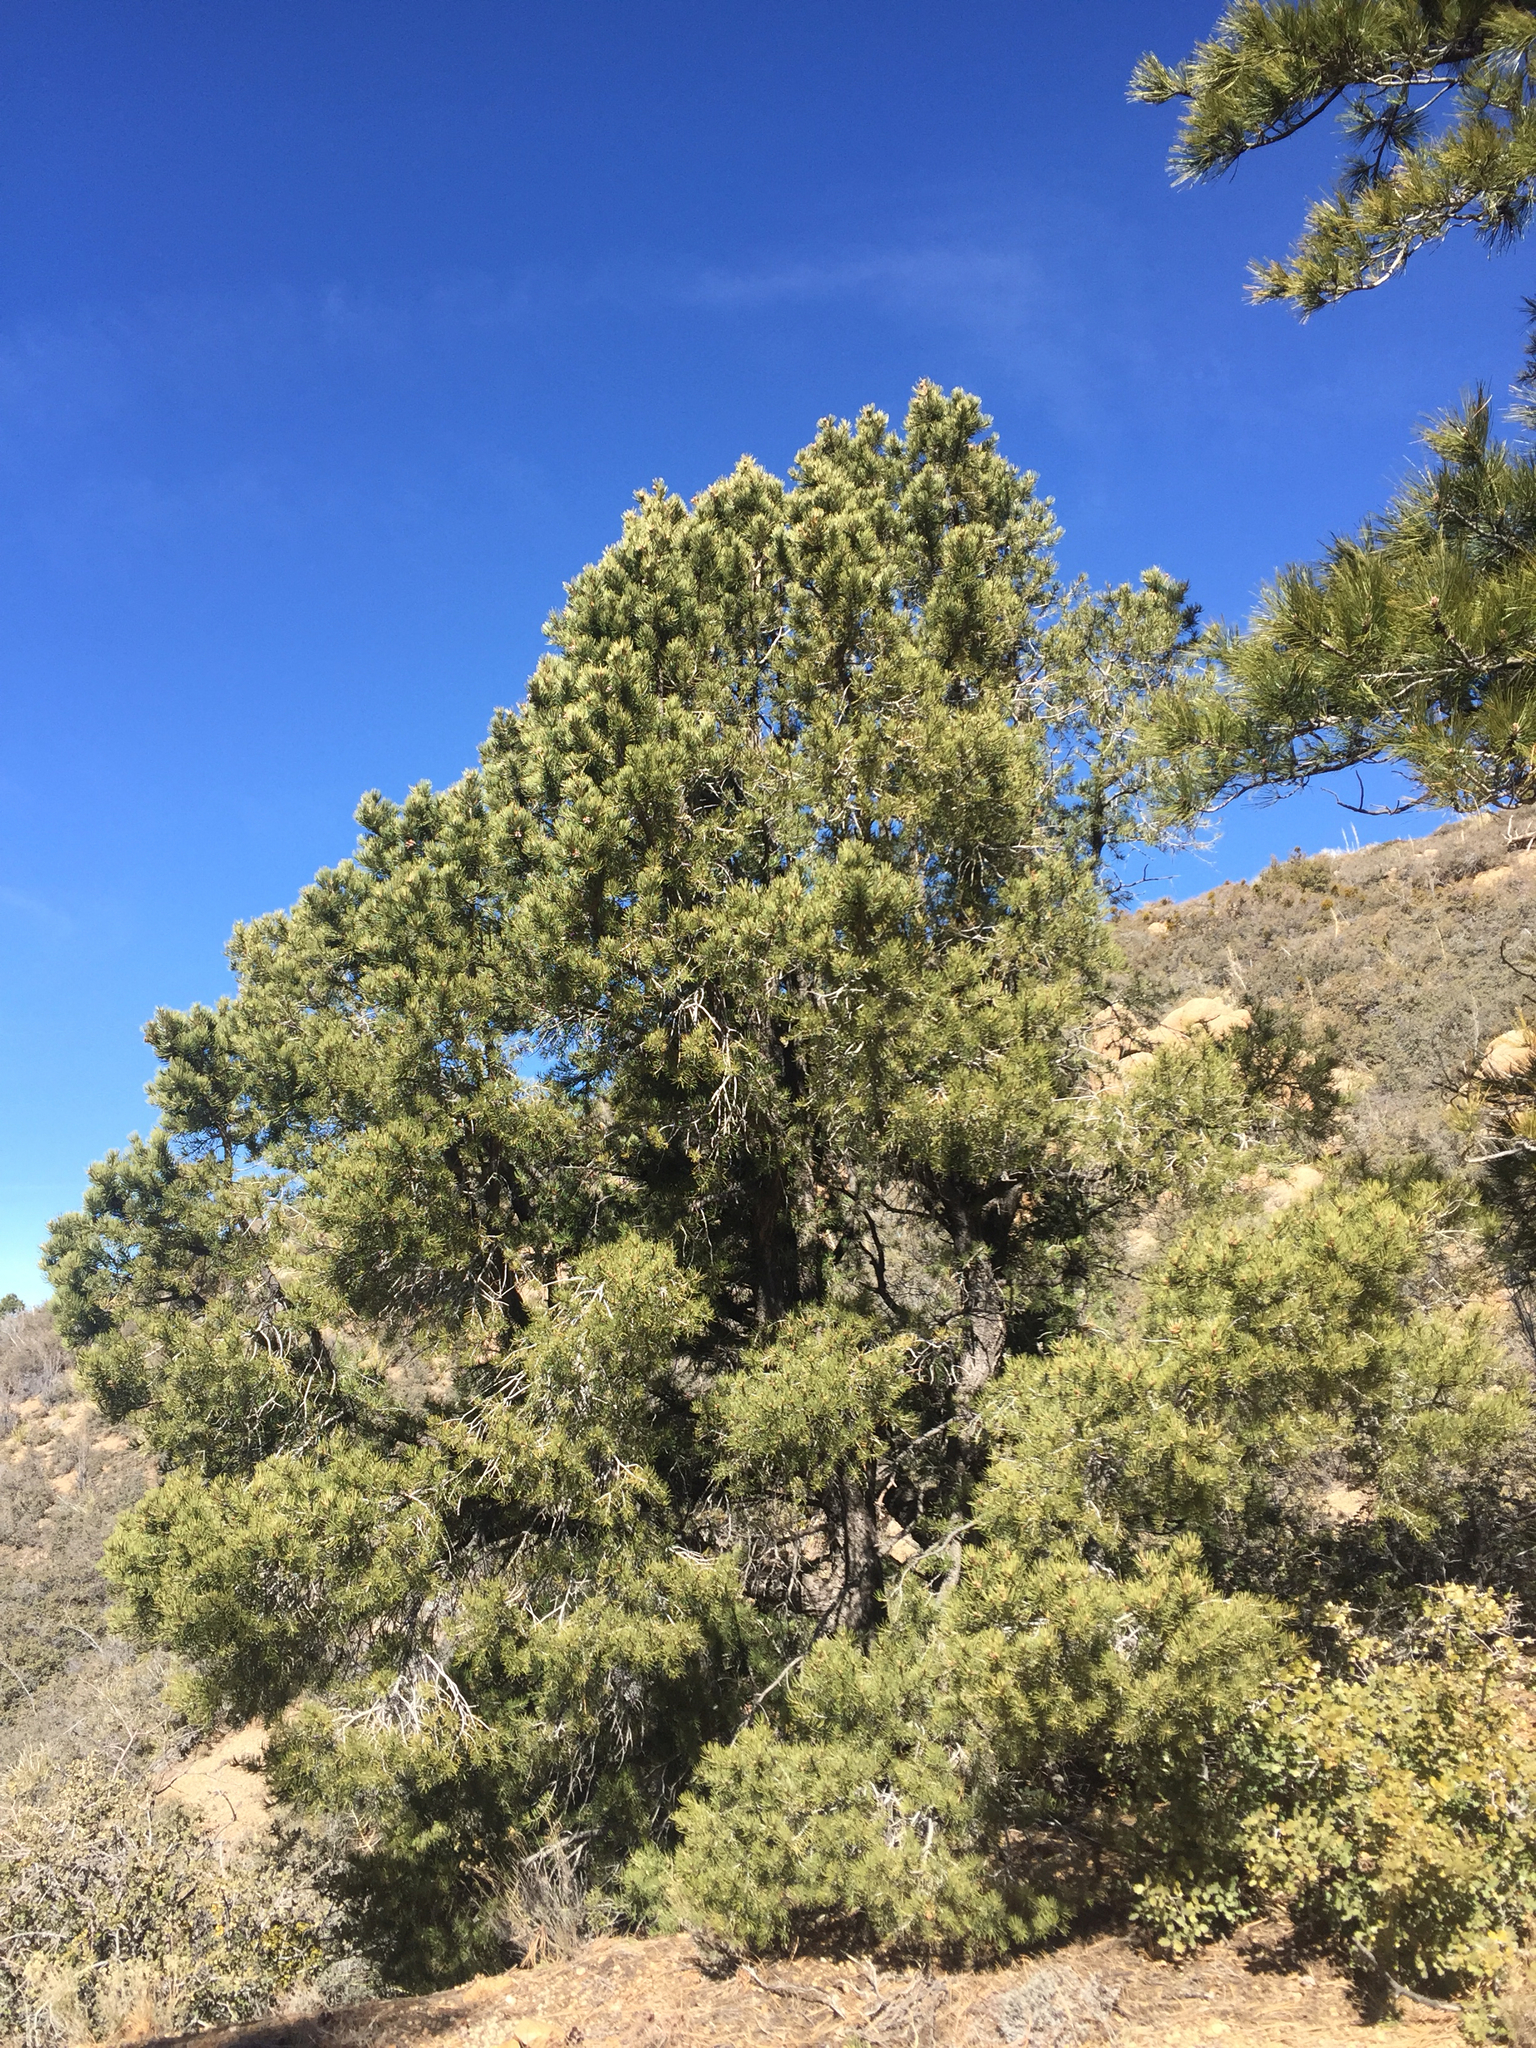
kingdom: Plantae
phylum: Tracheophyta
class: Pinopsida
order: Pinales
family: Pinaceae
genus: Pinus
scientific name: Pinus monophylla
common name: One-leaved nut pine
